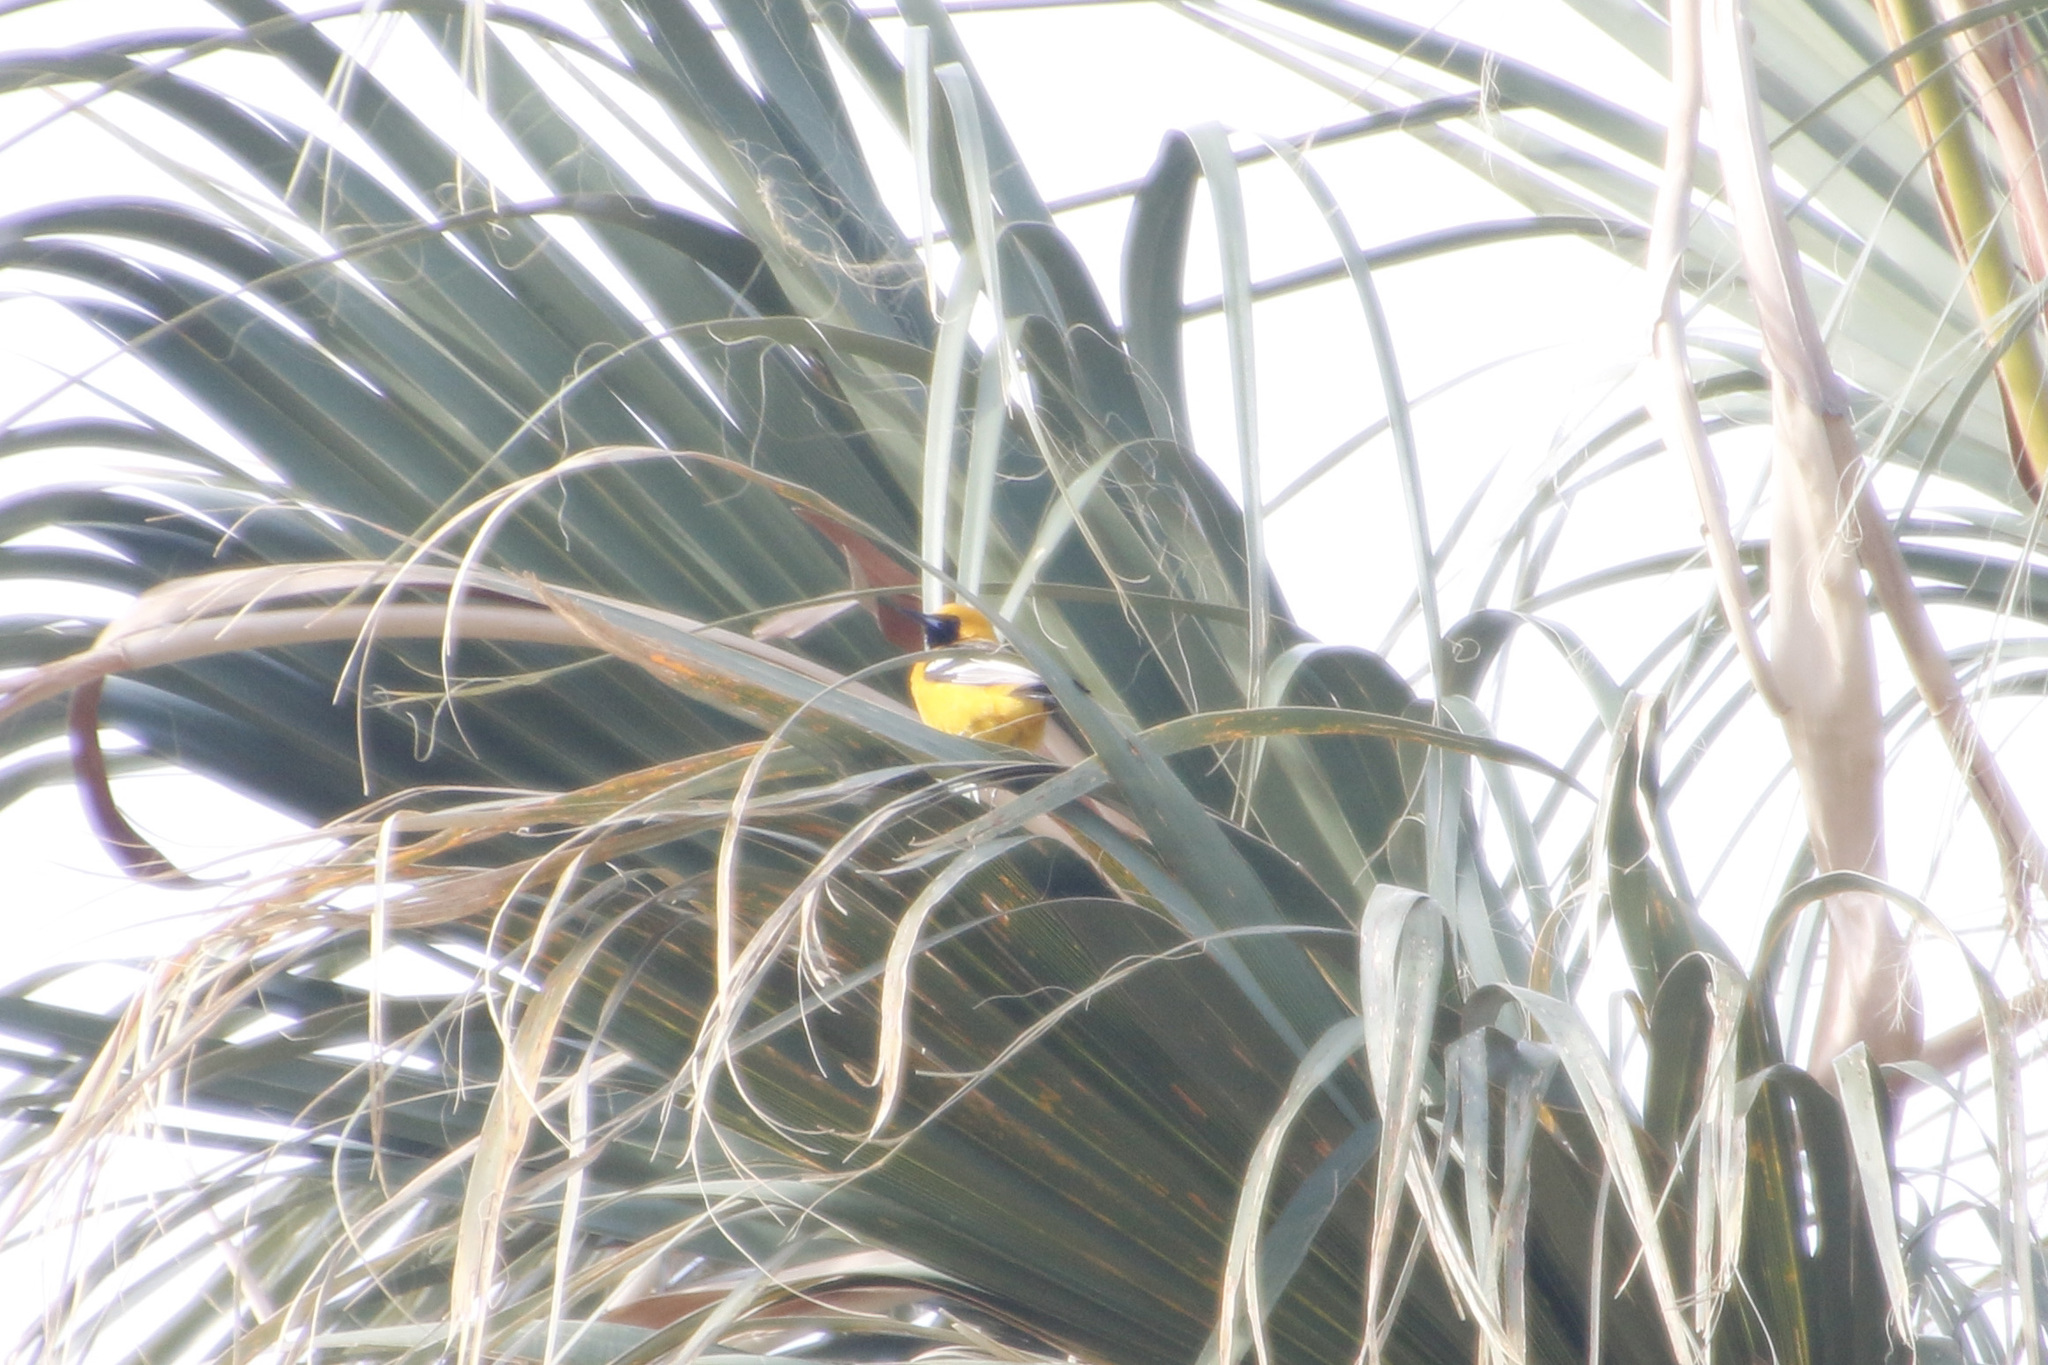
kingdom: Animalia
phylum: Chordata
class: Aves
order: Passeriformes
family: Icteridae
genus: Icterus
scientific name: Icterus cucullatus
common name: Hooded oriole
